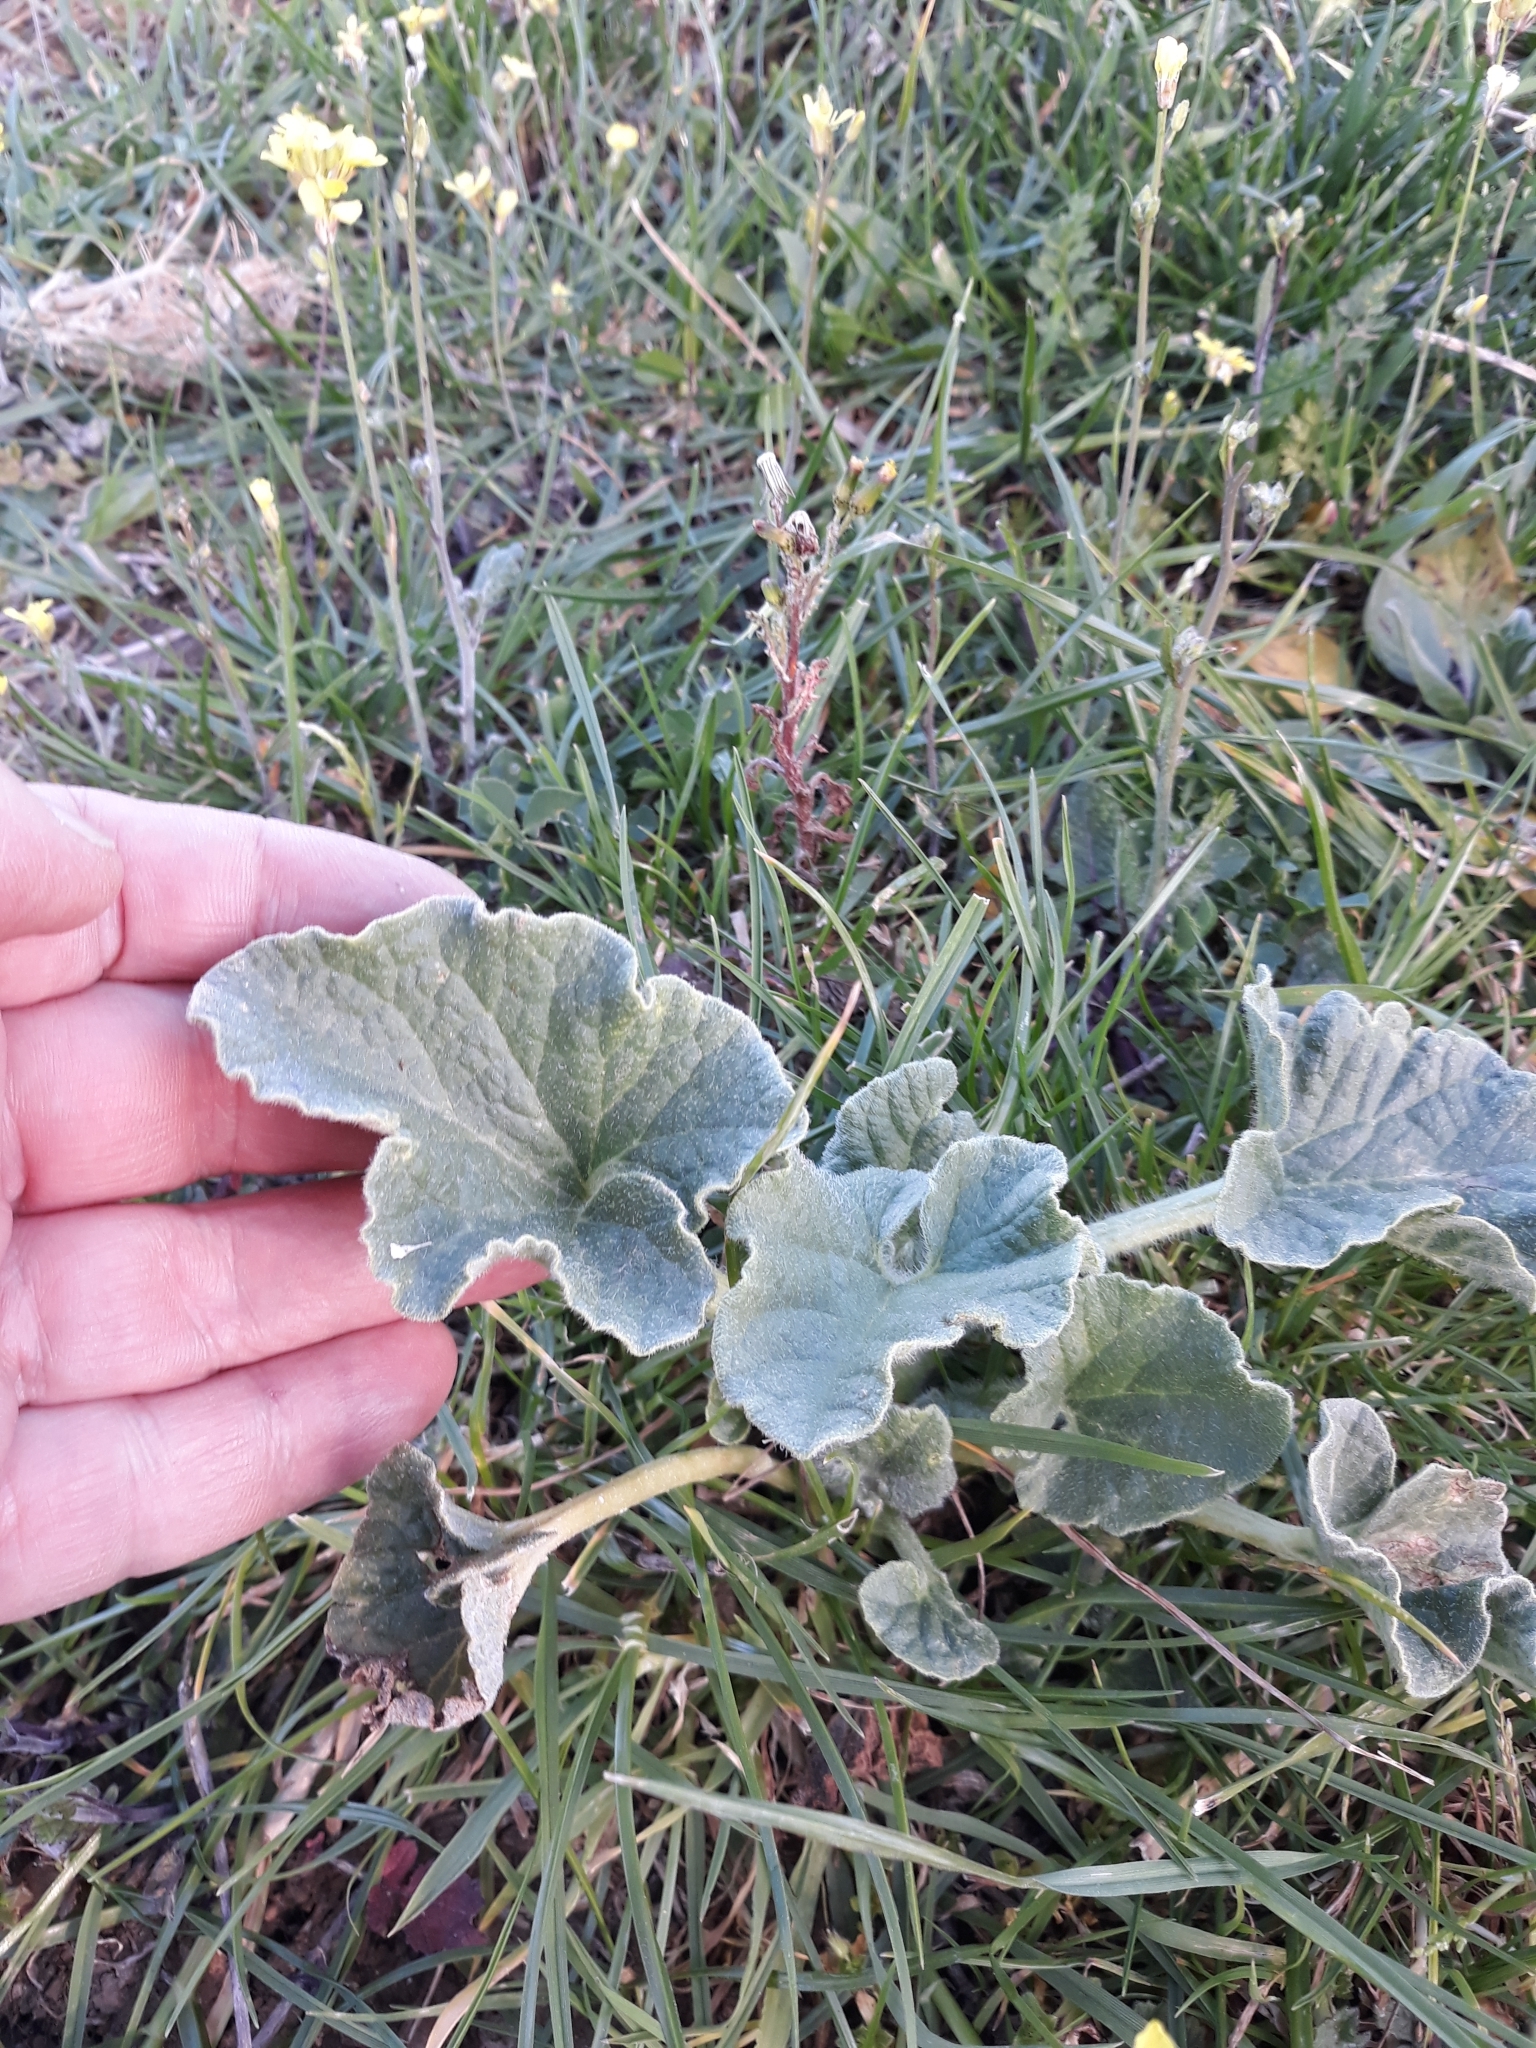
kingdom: Plantae
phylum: Tracheophyta
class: Magnoliopsida
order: Cucurbitales
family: Cucurbitaceae
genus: Ecballium
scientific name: Ecballium elaterium
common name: Squirting cucumber
